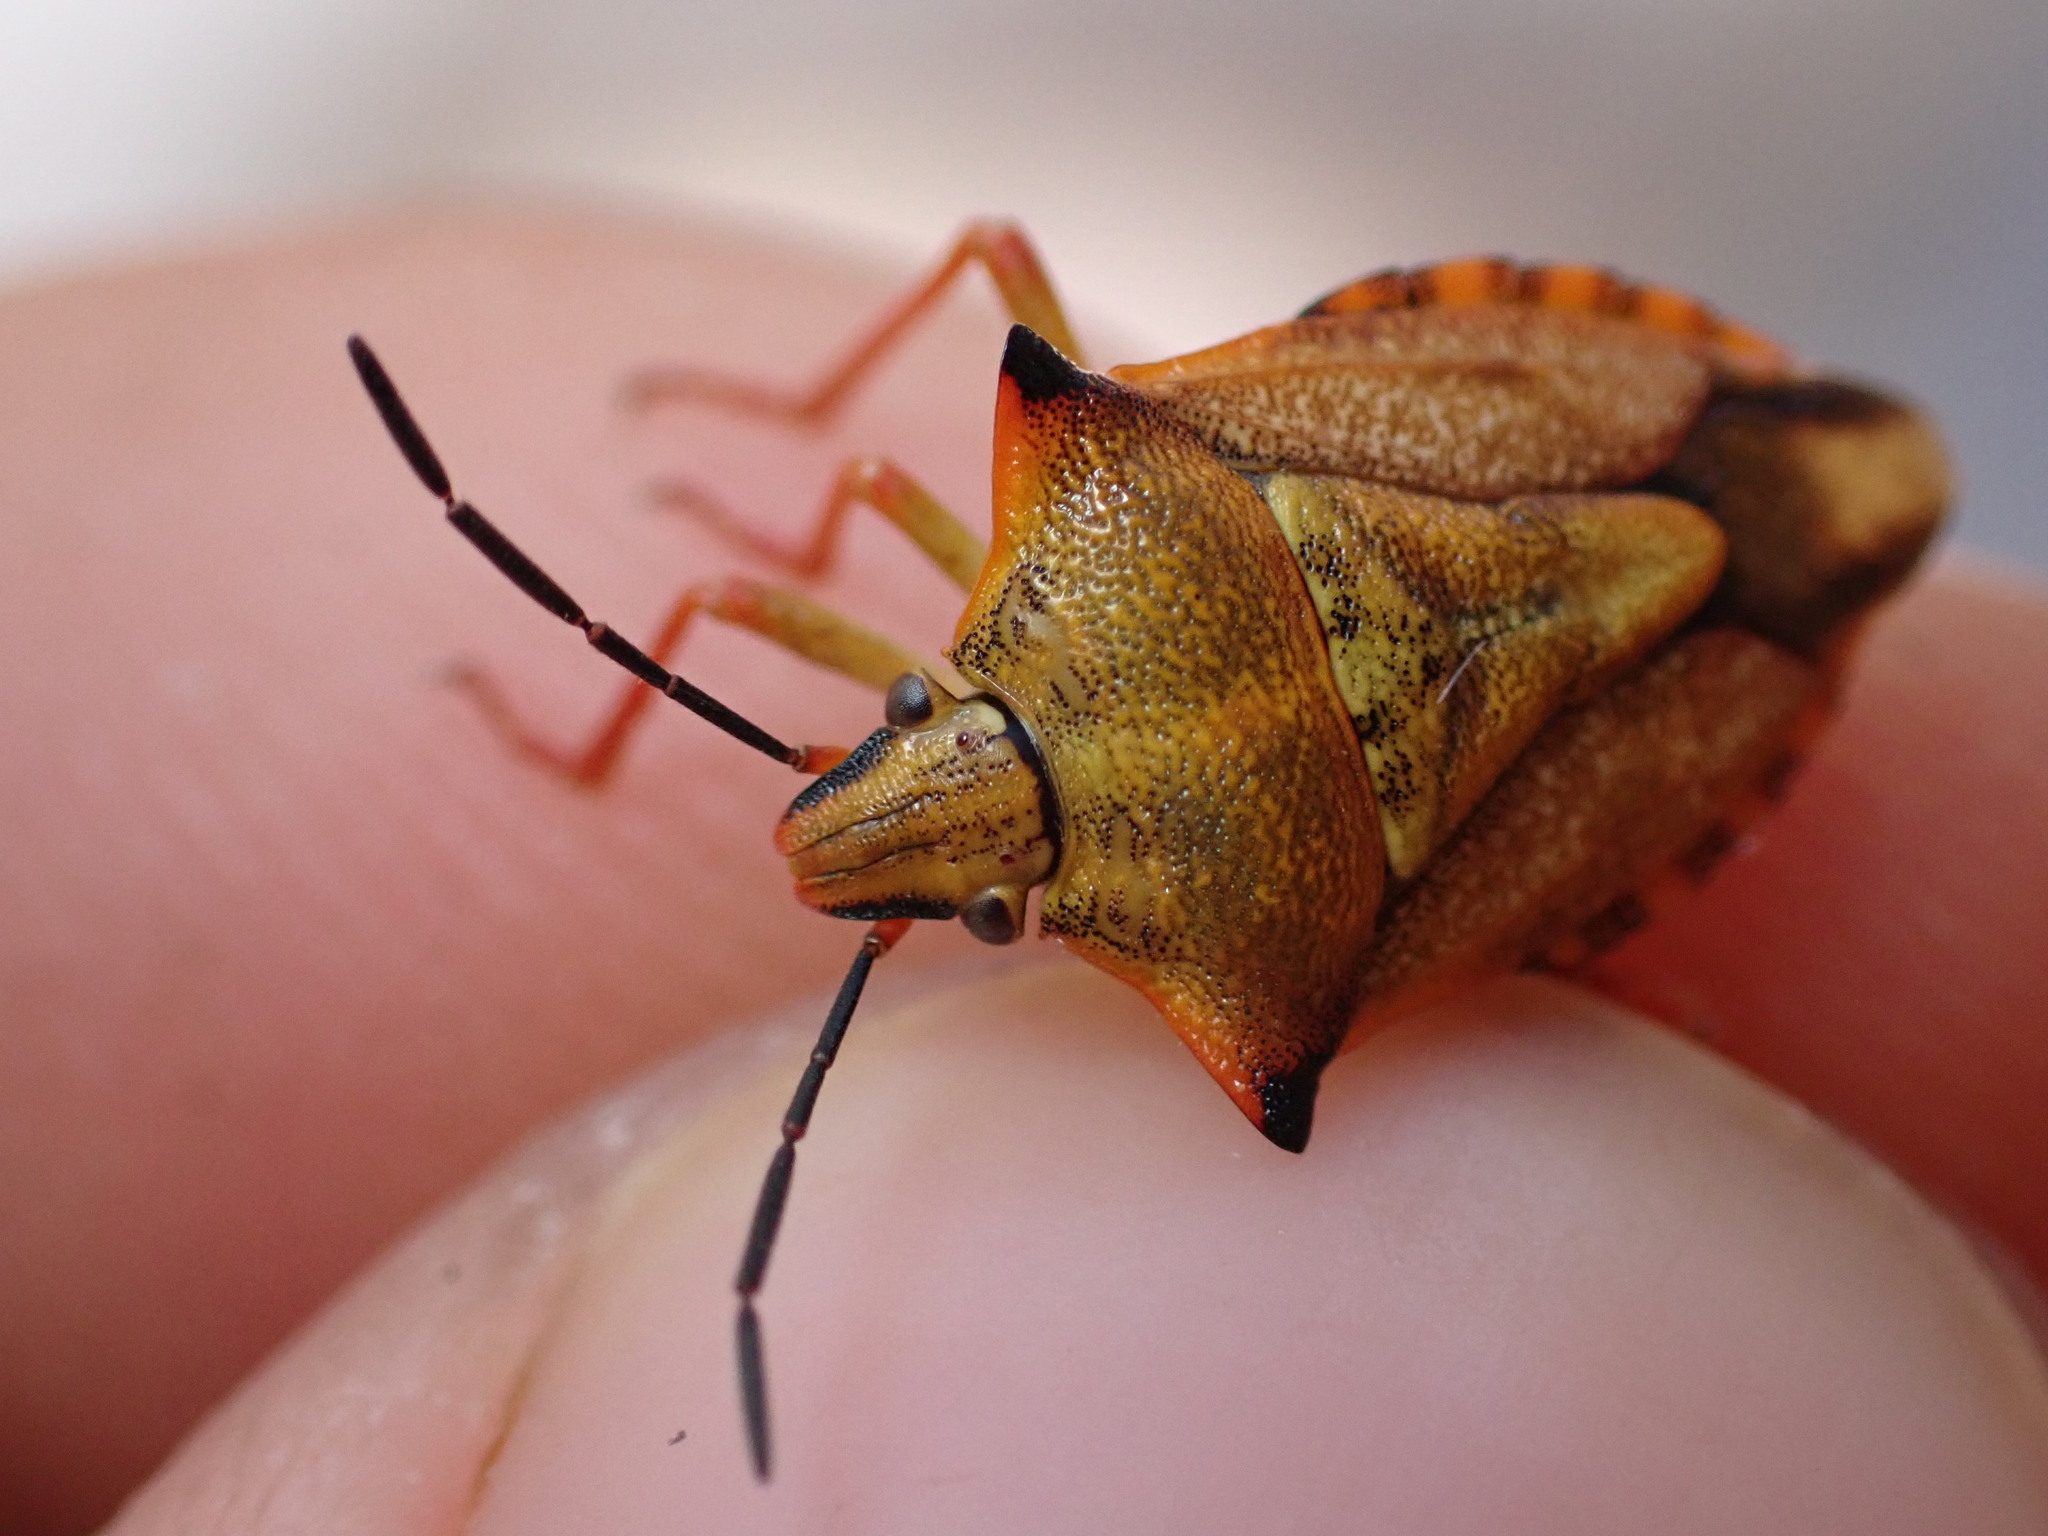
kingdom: Animalia
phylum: Arthropoda
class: Insecta
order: Hemiptera
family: Pentatomidae
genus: Carpocoris
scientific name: Carpocoris mediterraneus
